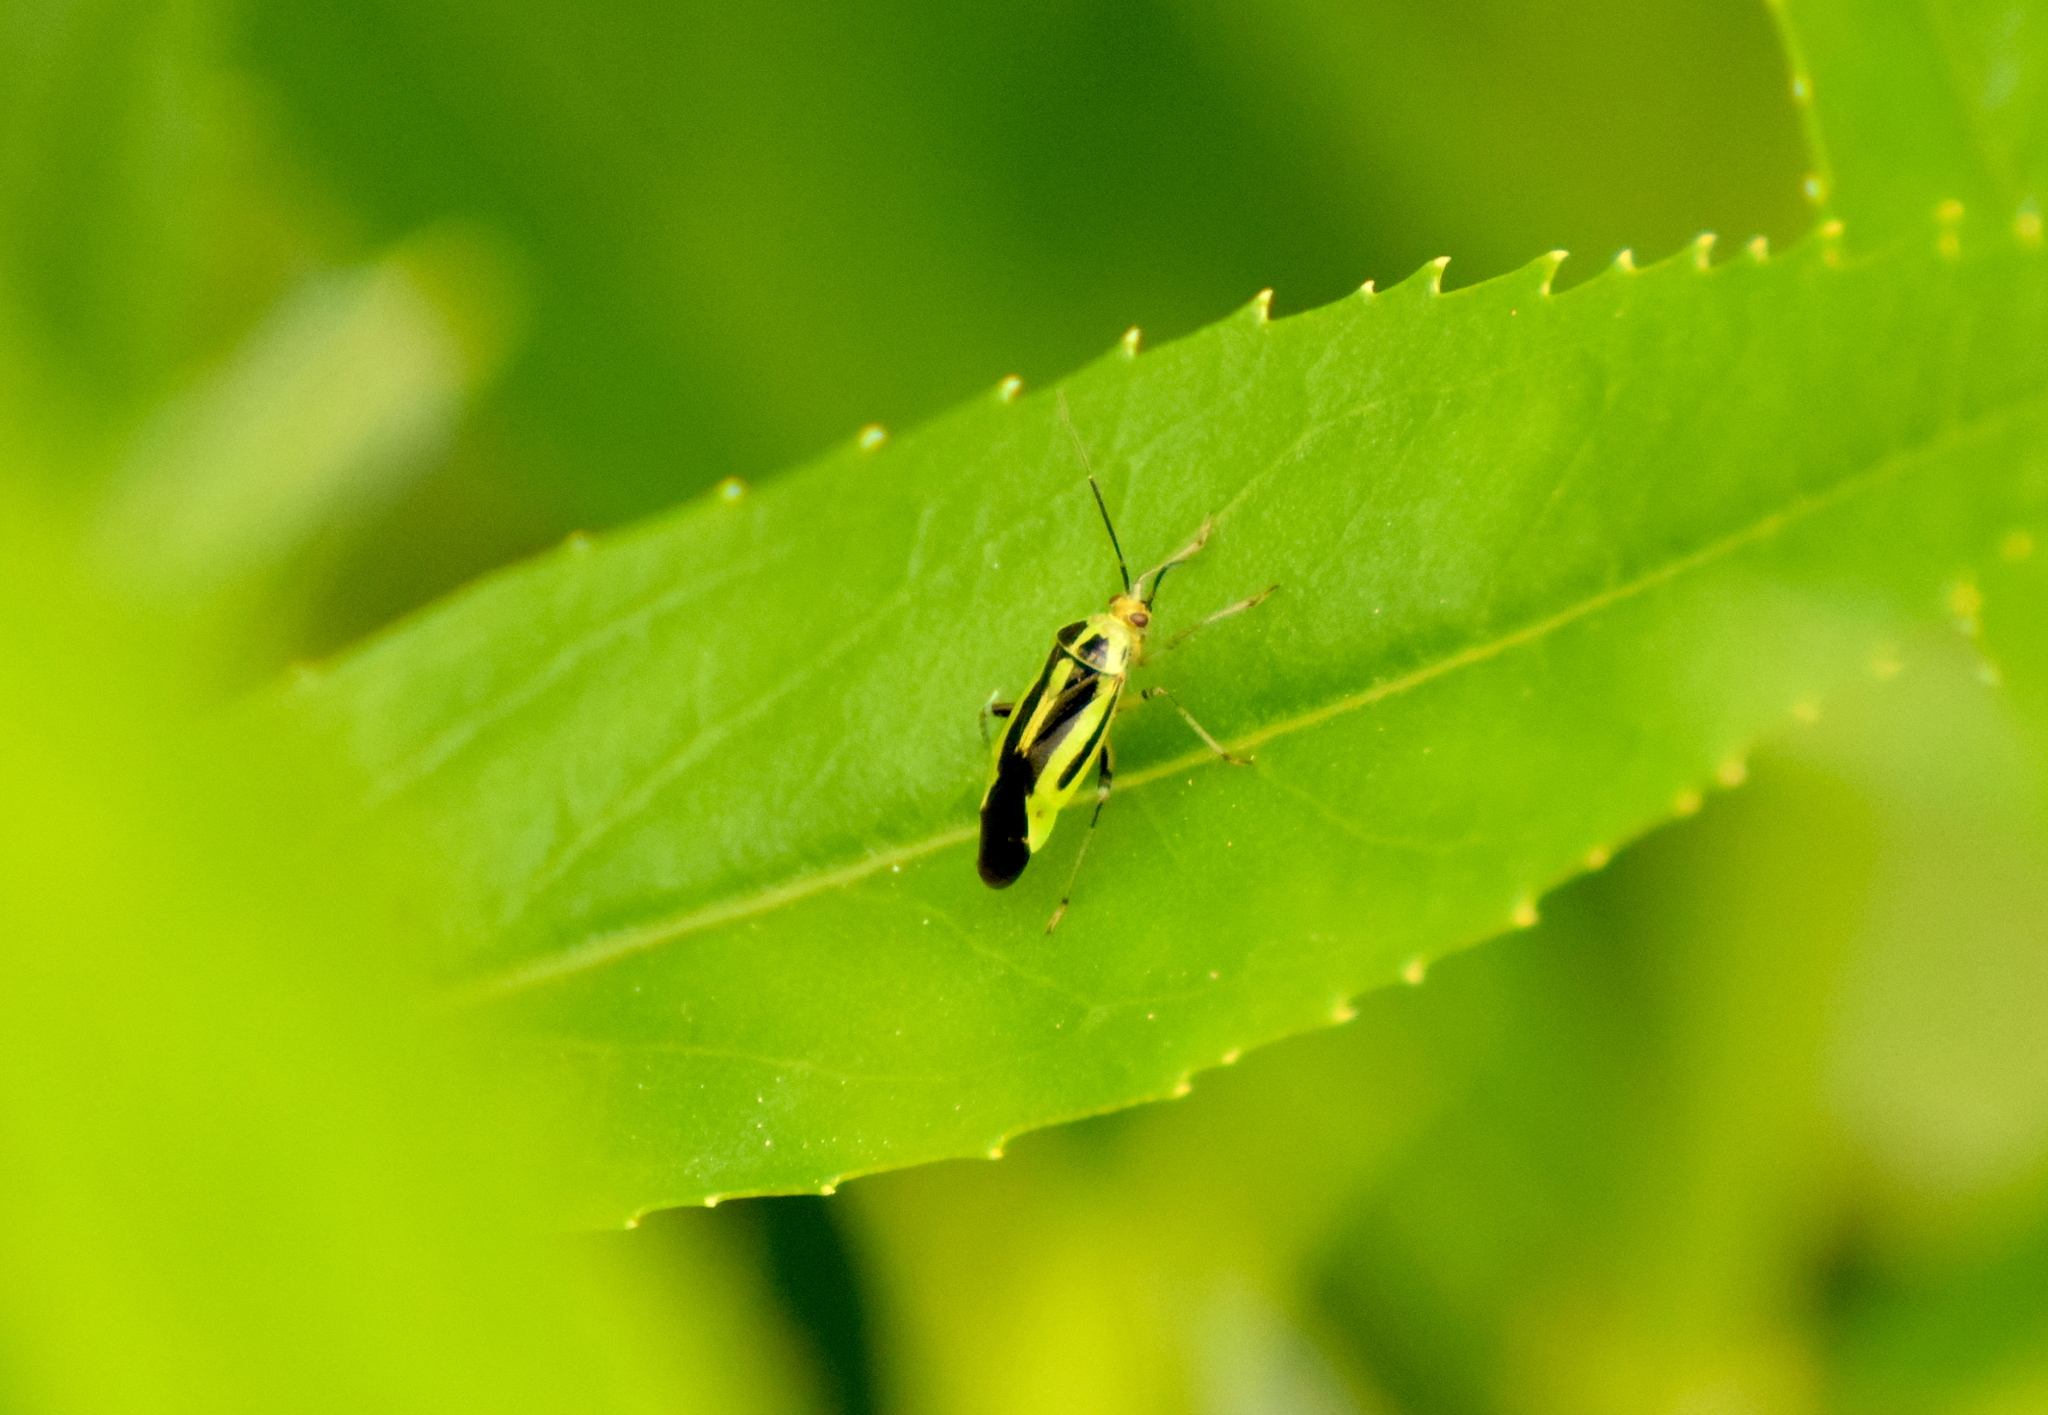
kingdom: Animalia
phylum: Arthropoda
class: Insecta
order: Hemiptera
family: Miridae
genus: Poecilocapsus
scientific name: Poecilocapsus lineatus
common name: Four-lined plant bug
